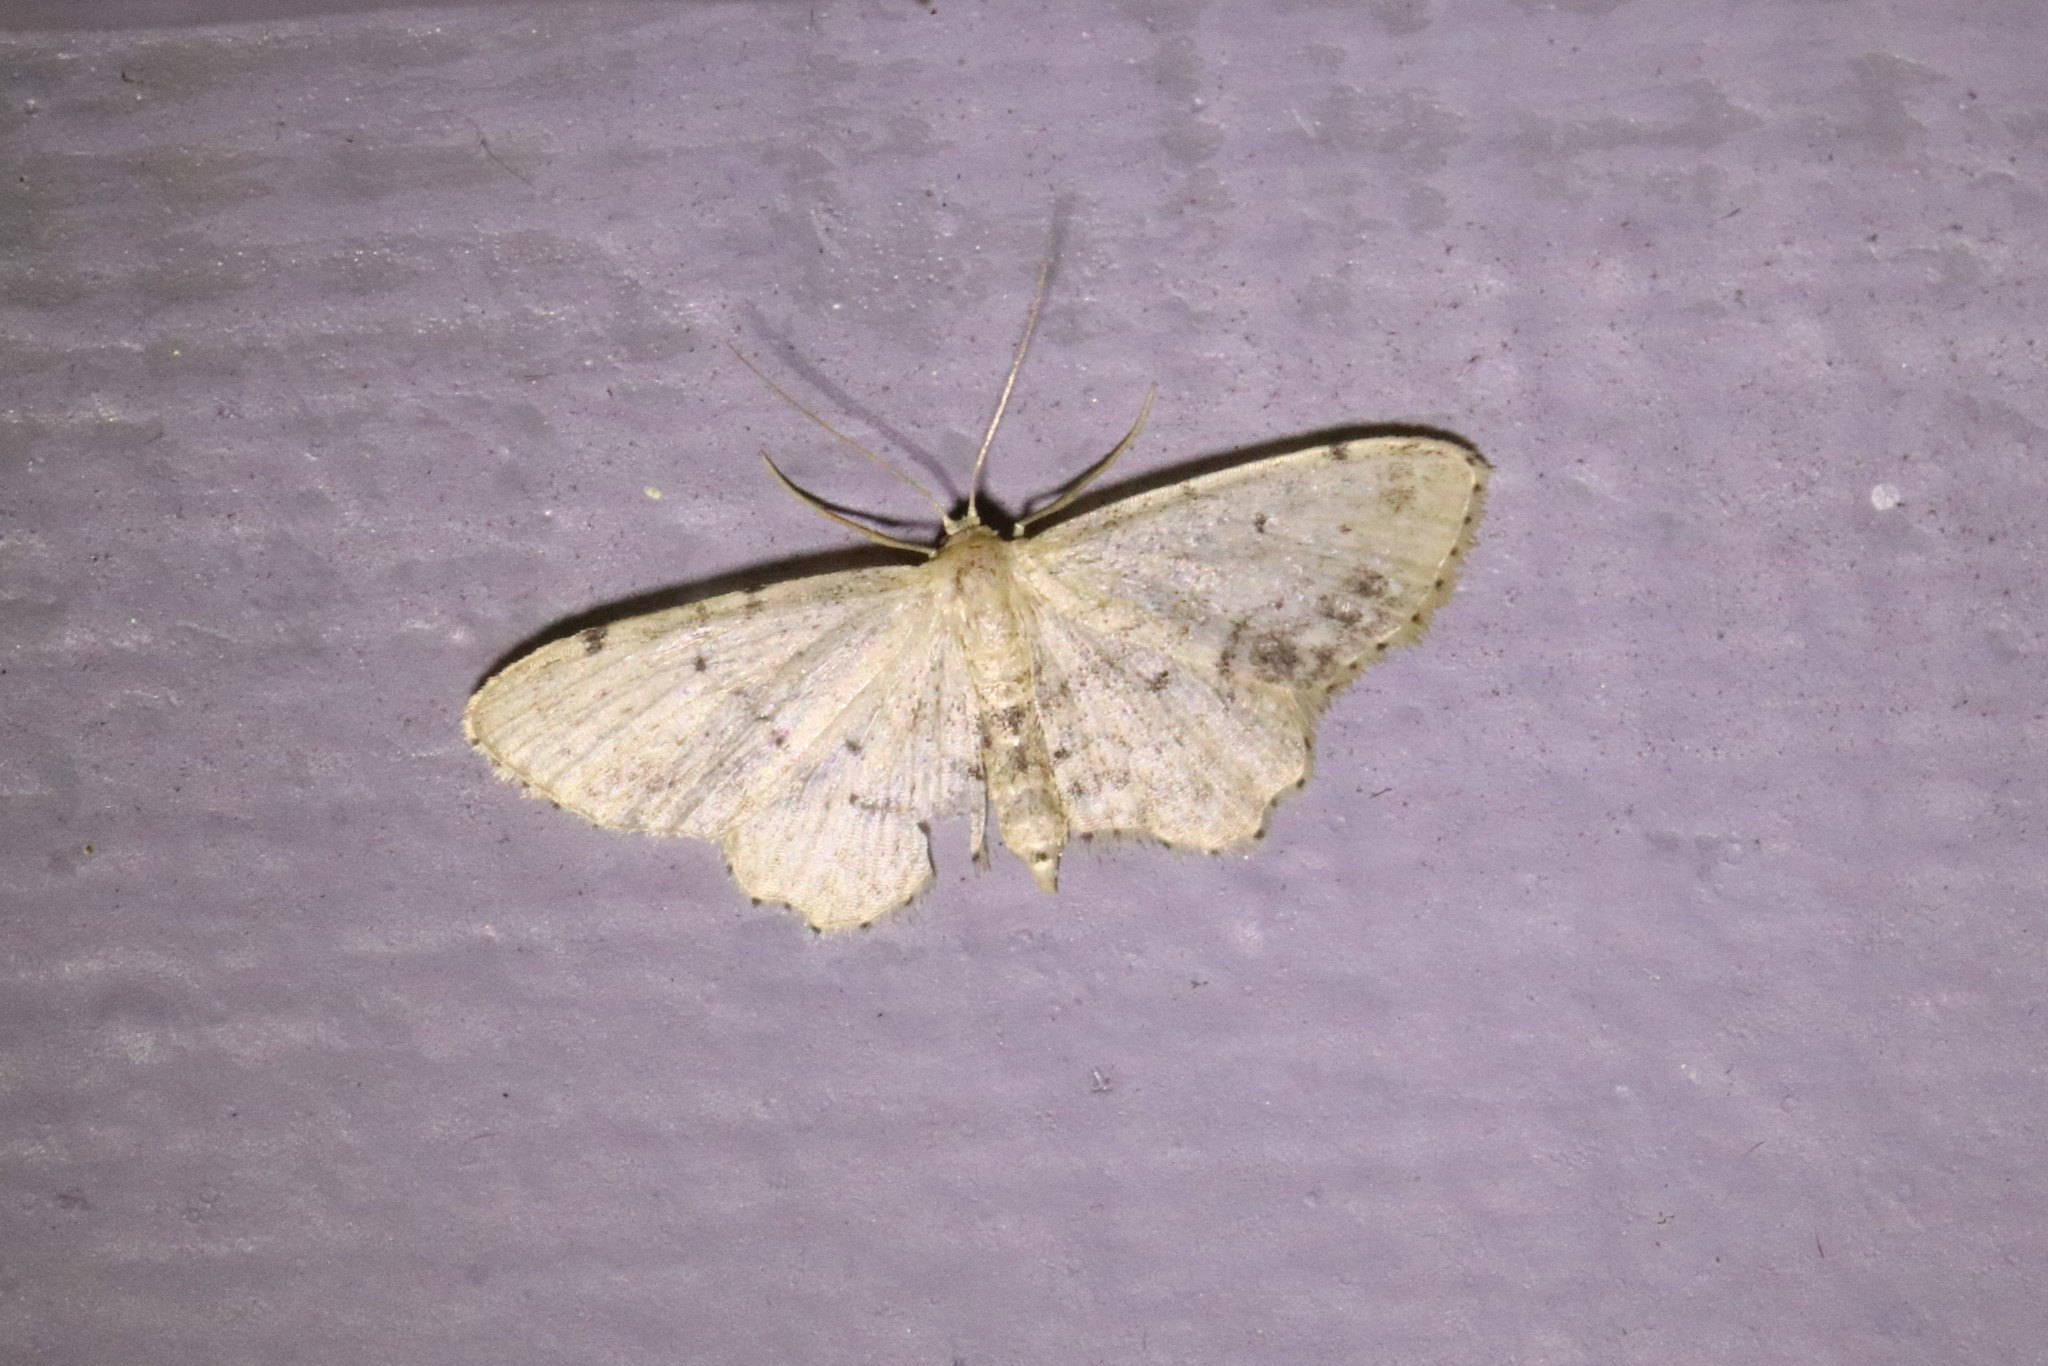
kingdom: Animalia
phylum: Arthropoda
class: Insecta
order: Lepidoptera
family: Geometridae
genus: Idaea
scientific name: Idaea dimidiata
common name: Single-dotted wave
